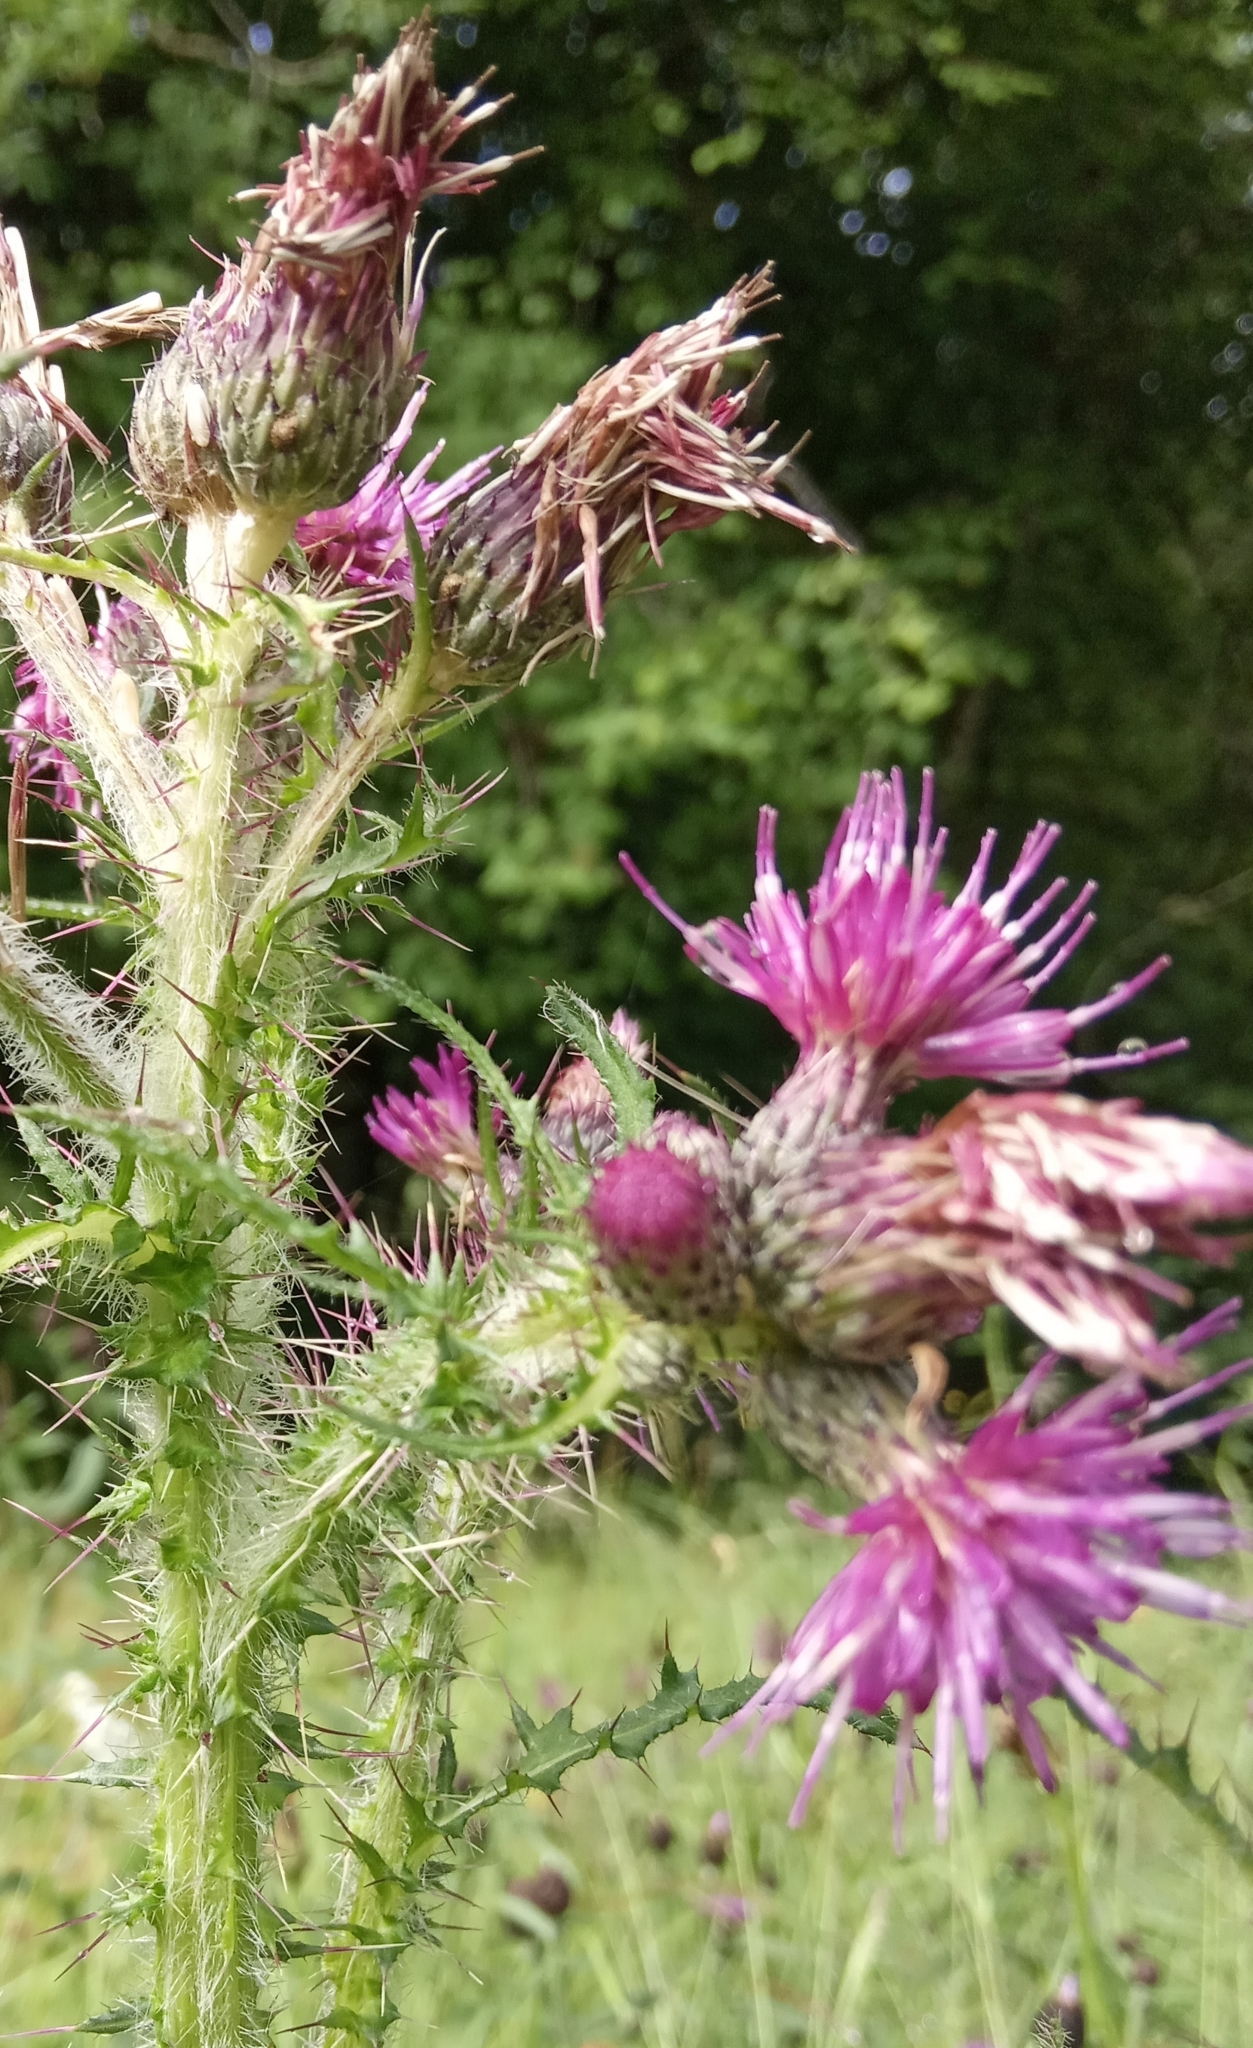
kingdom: Plantae
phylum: Tracheophyta
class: Magnoliopsida
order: Asterales
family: Asteraceae
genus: Cirsium
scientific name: Cirsium palustre
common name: Marsh thistle
